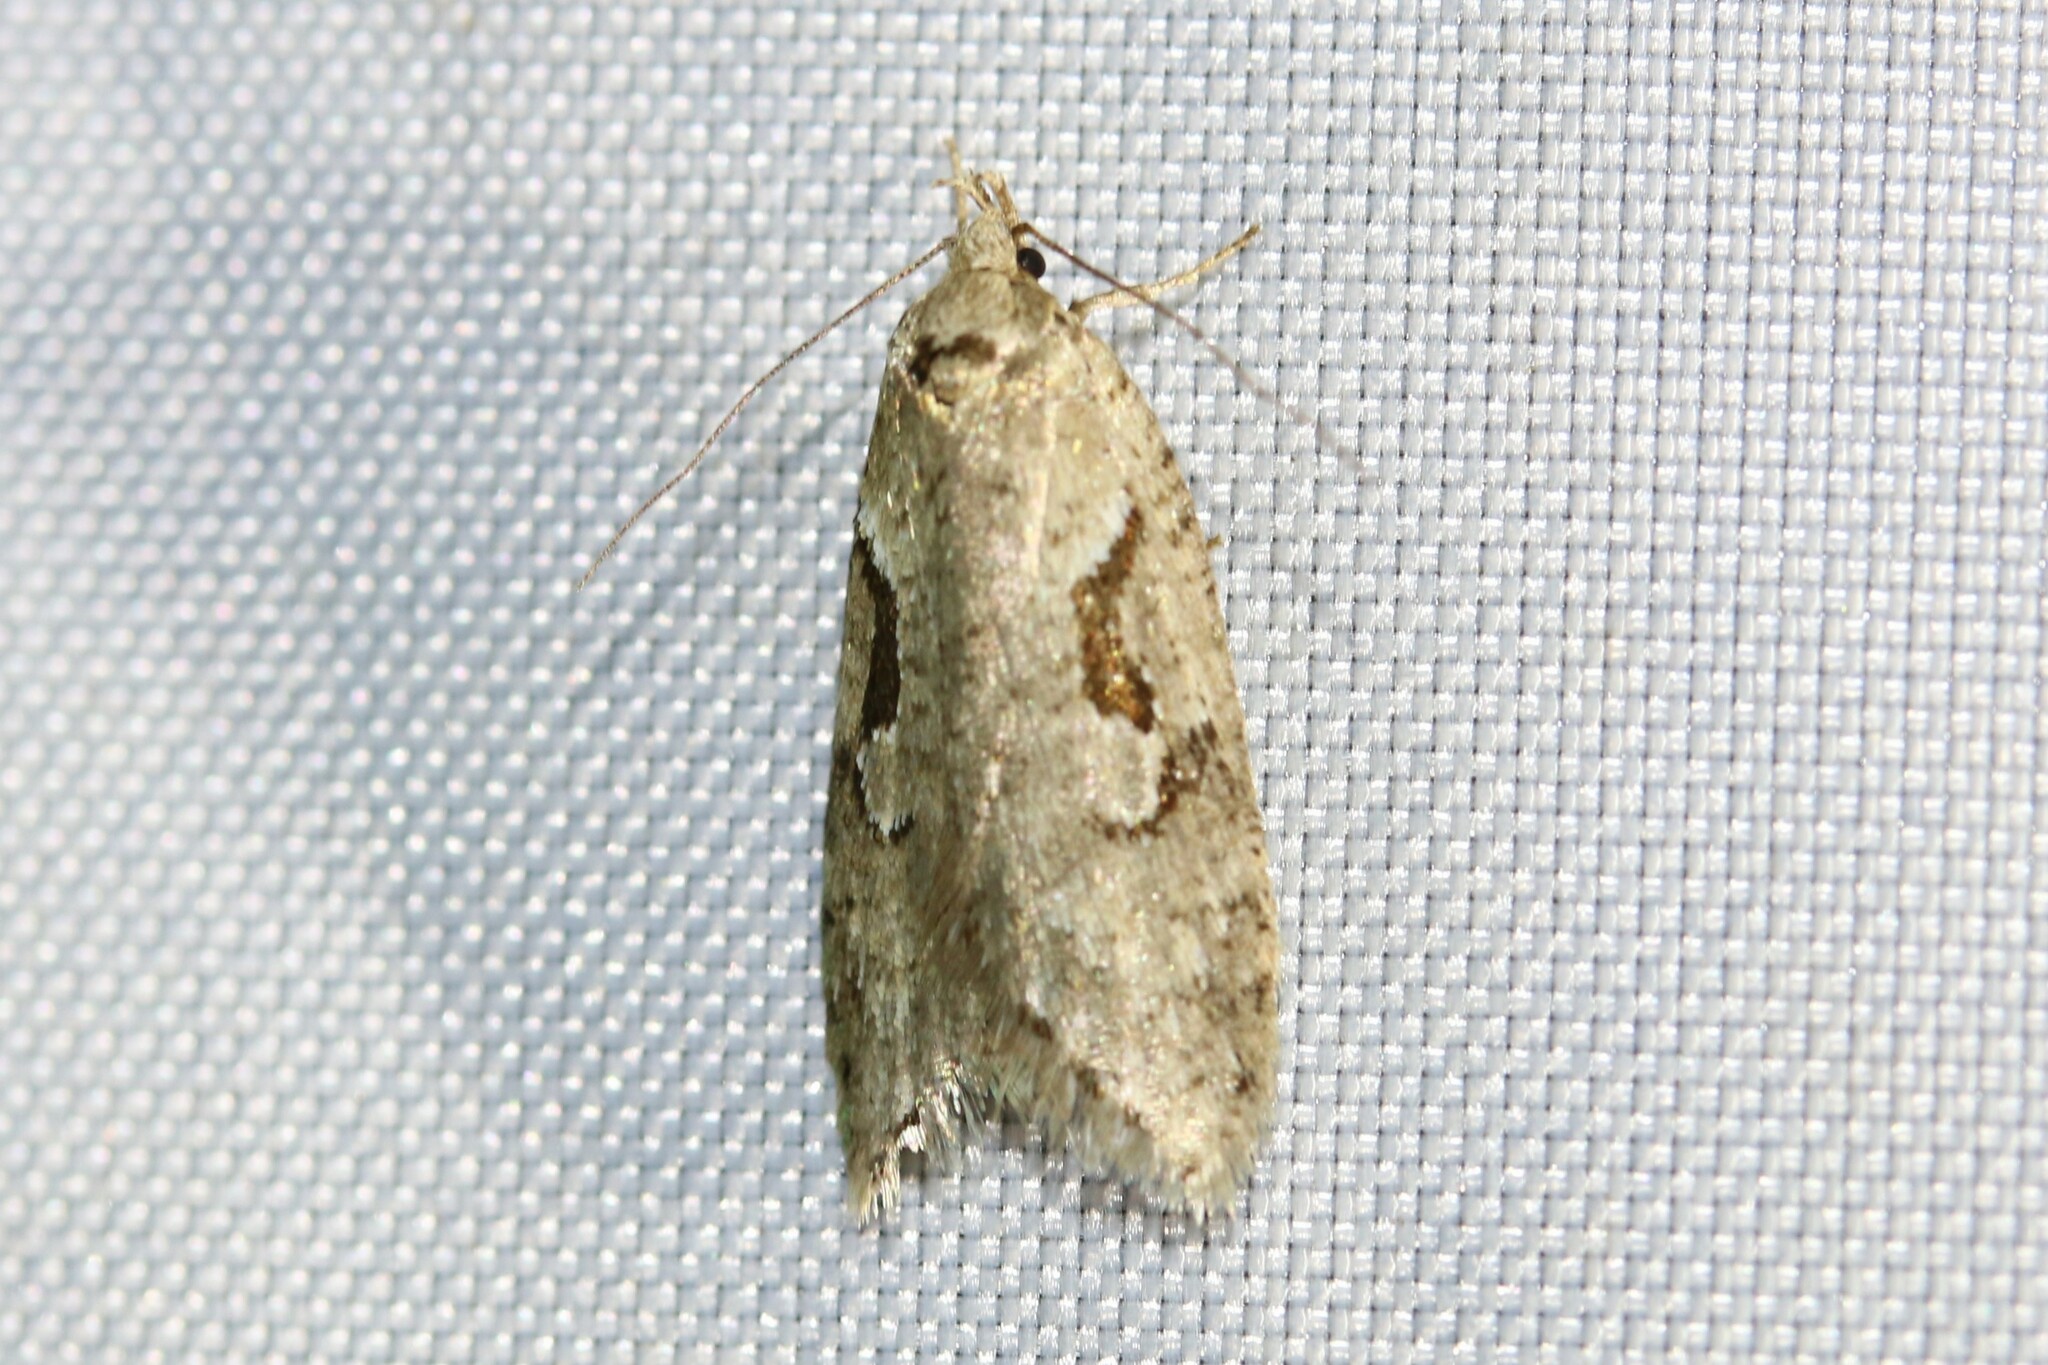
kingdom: Animalia
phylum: Arthropoda
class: Insecta
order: Lepidoptera
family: Depressariidae
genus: Semioscopis
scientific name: Semioscopis steinkellneriana
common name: Dawn flat-body
